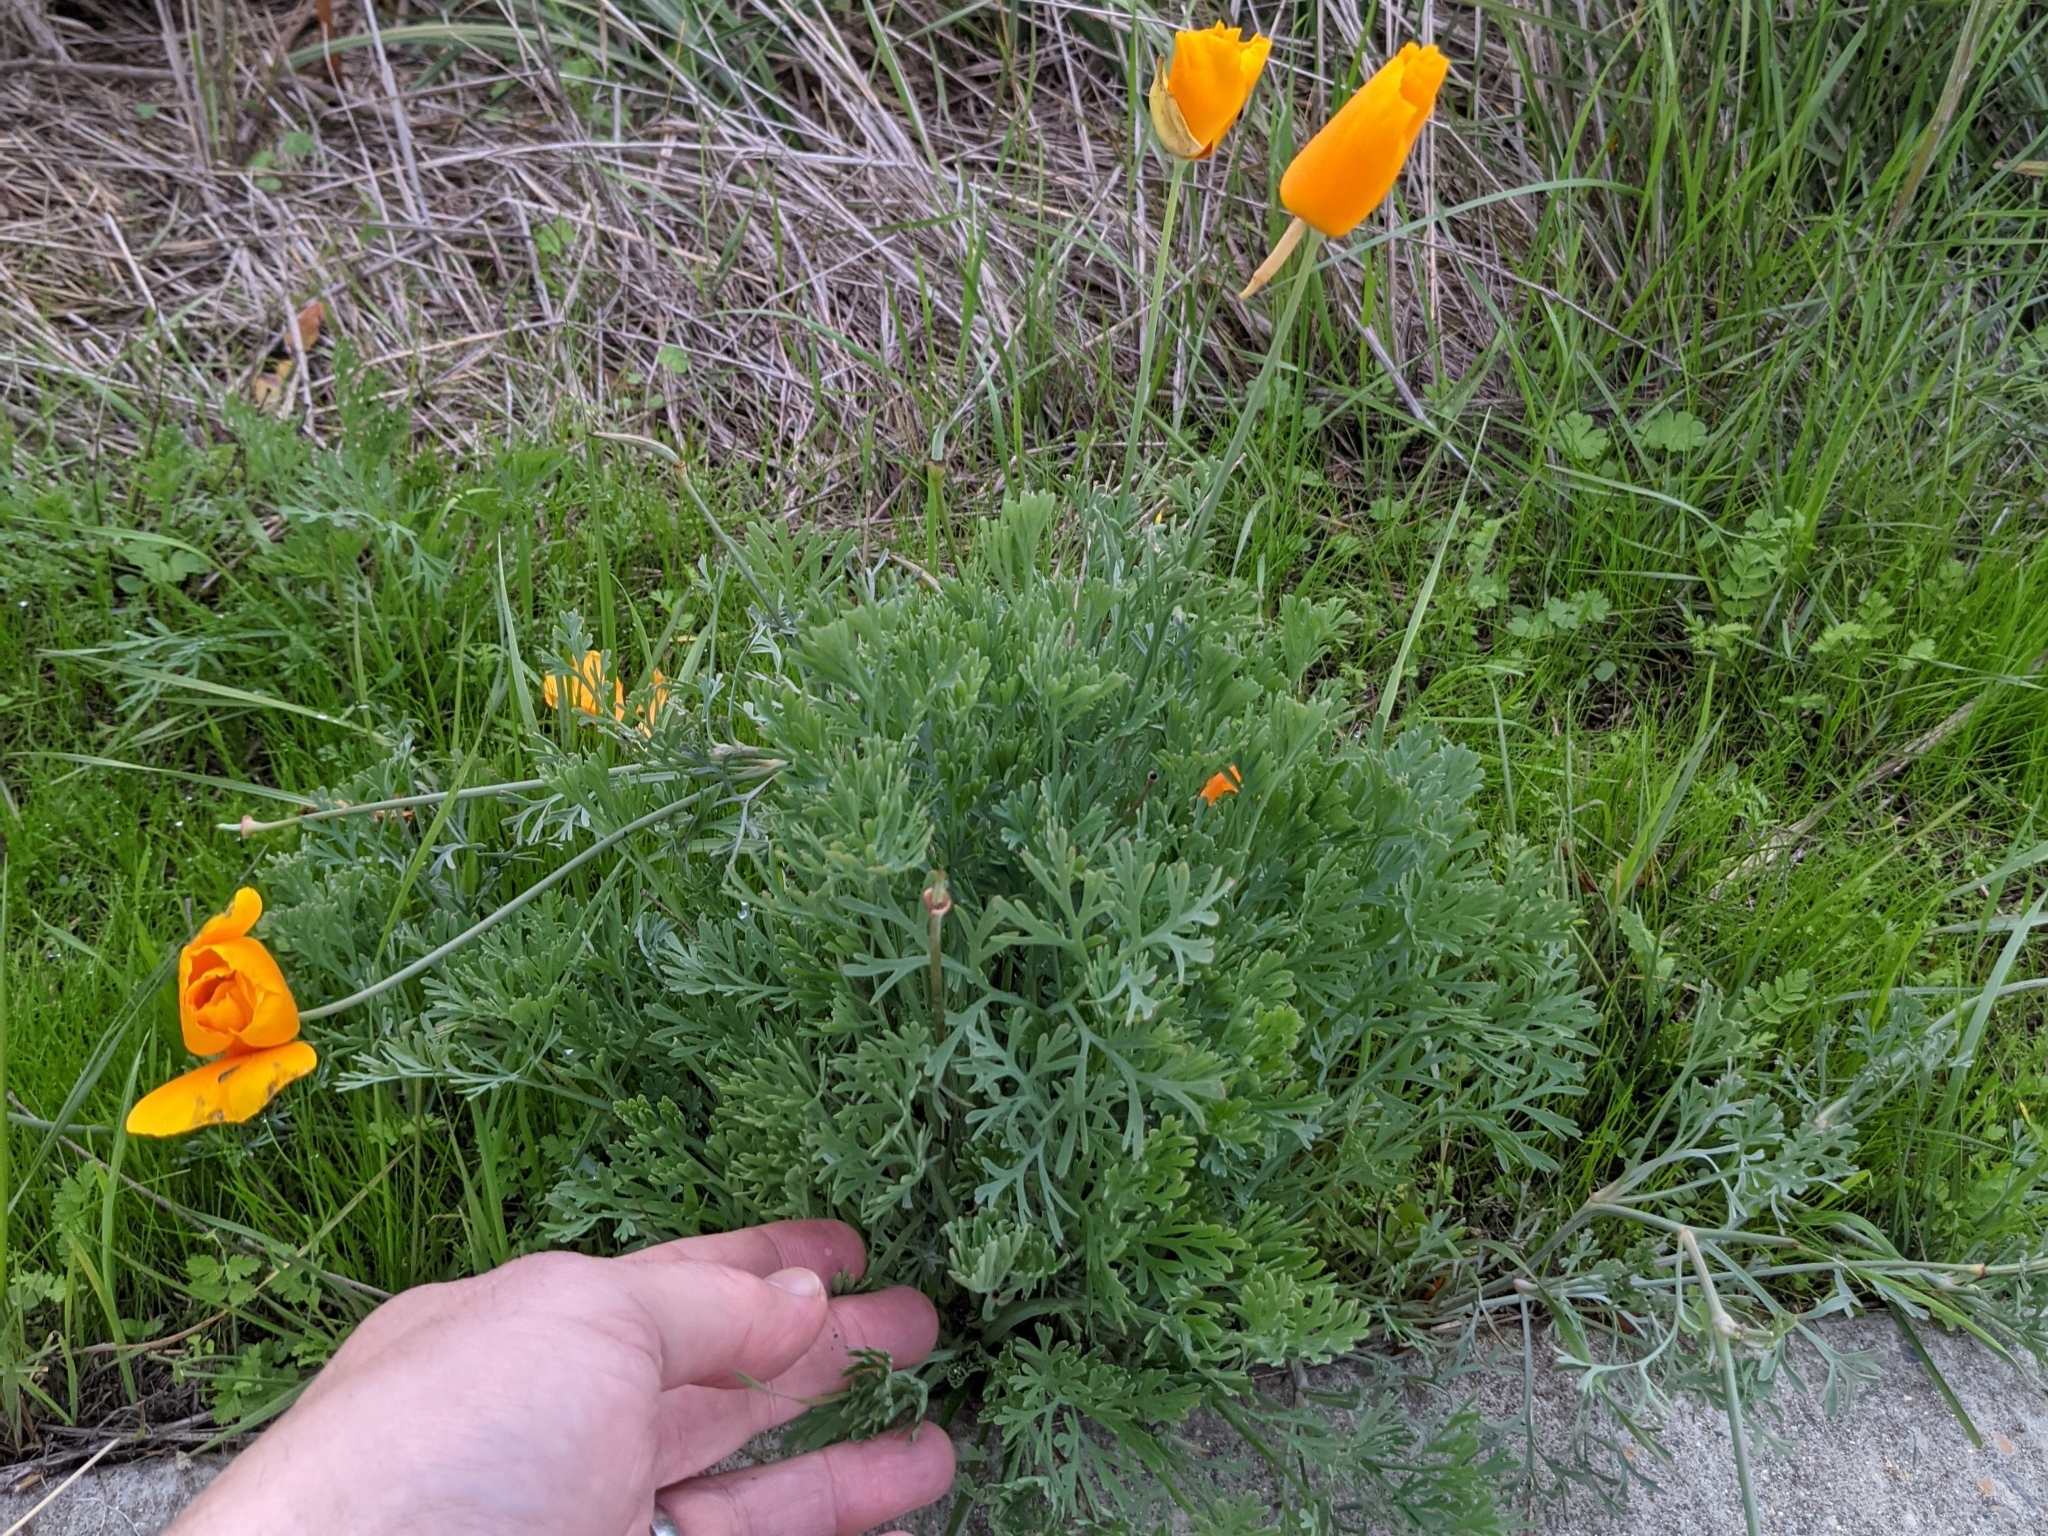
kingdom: Plantae
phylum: Tracheophyta
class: Magnoliopsida
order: Ranunculales
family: Papaveraceae
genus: Eschscholzia
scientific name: Eschscholzia californica
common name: California poppy
